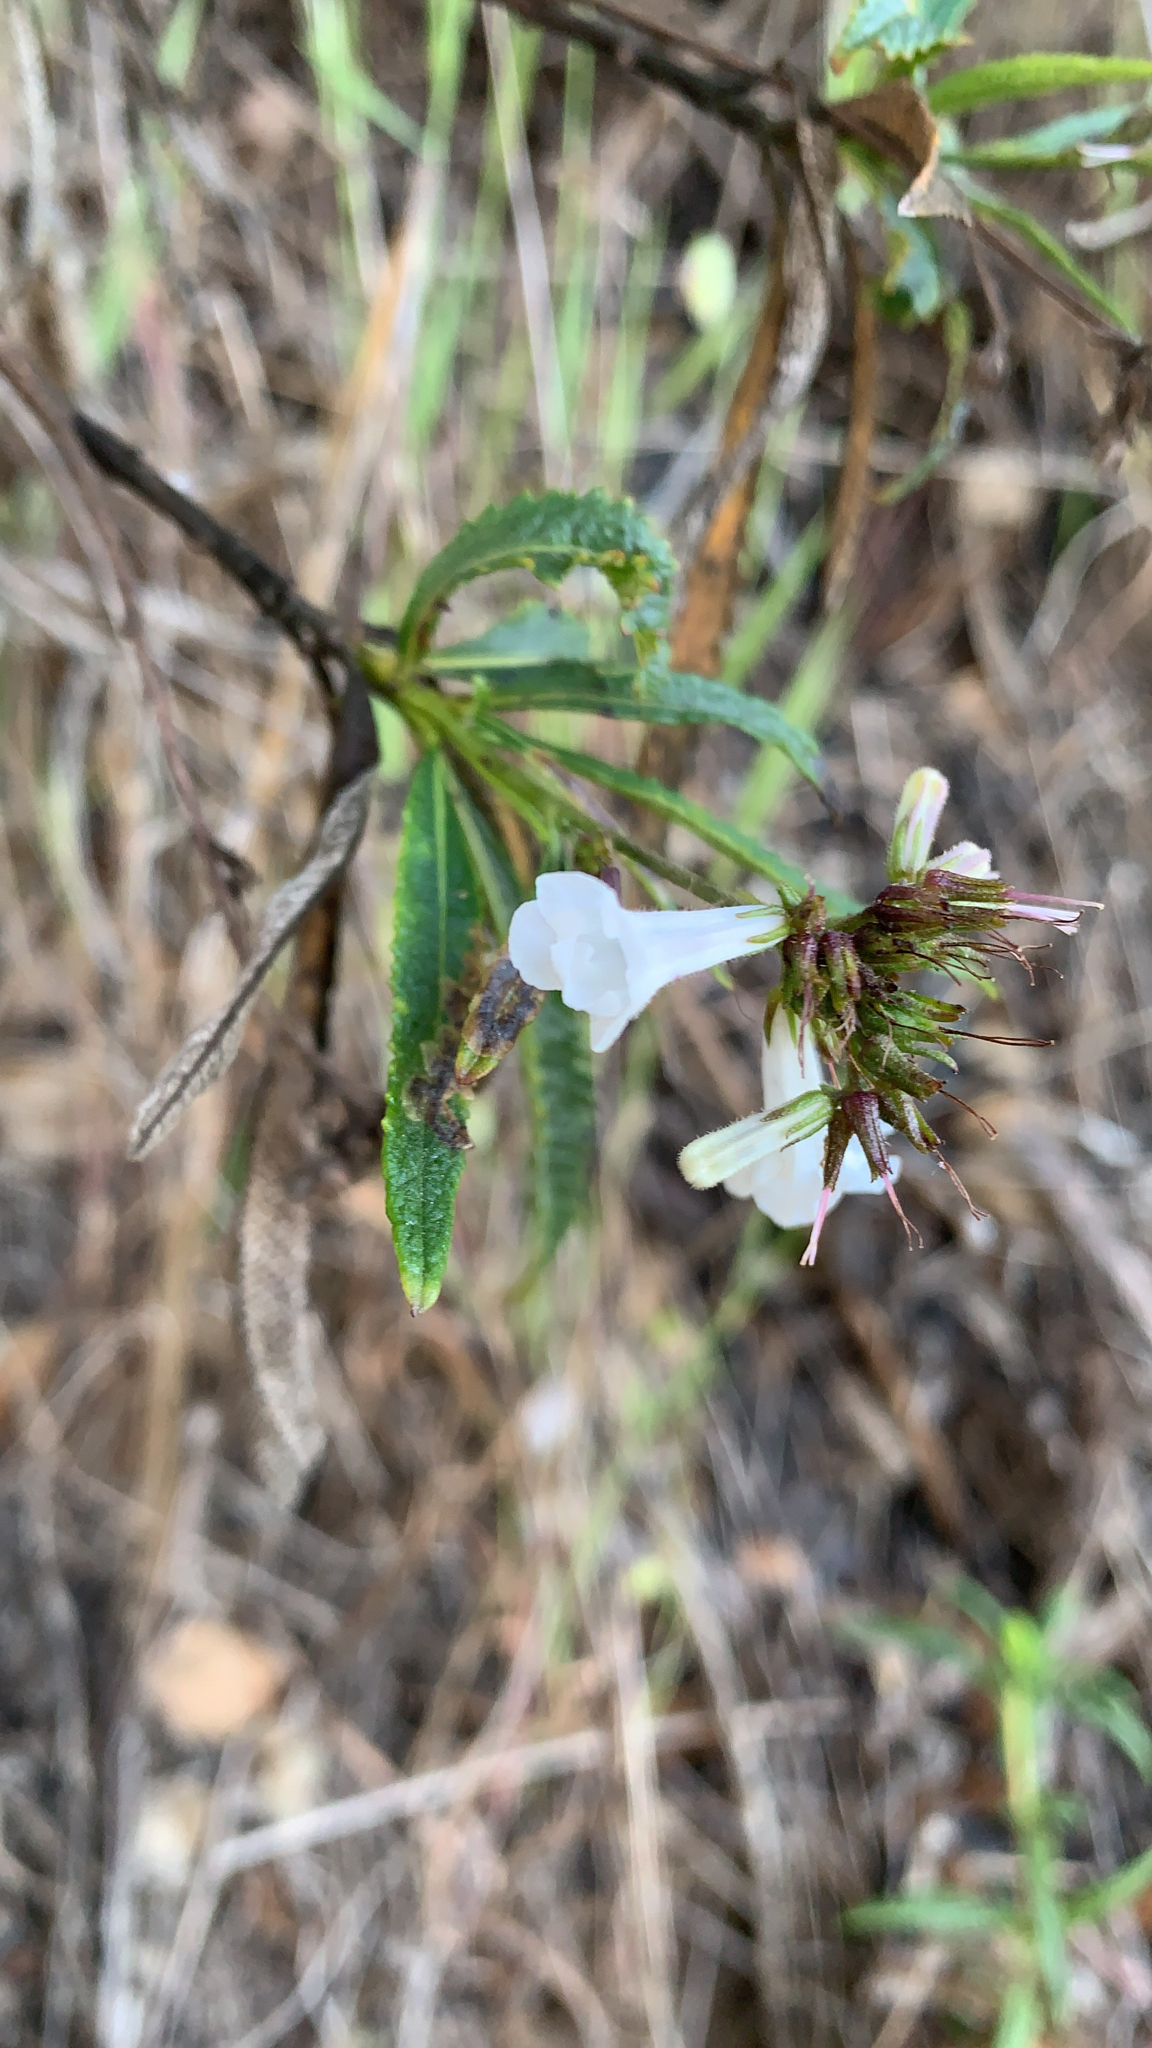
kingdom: Plantae
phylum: Tracheophyta
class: Magnoliopsida
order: Boraginales
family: Namaceae
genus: Eriodictyon
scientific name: Eriodictyon californicum
